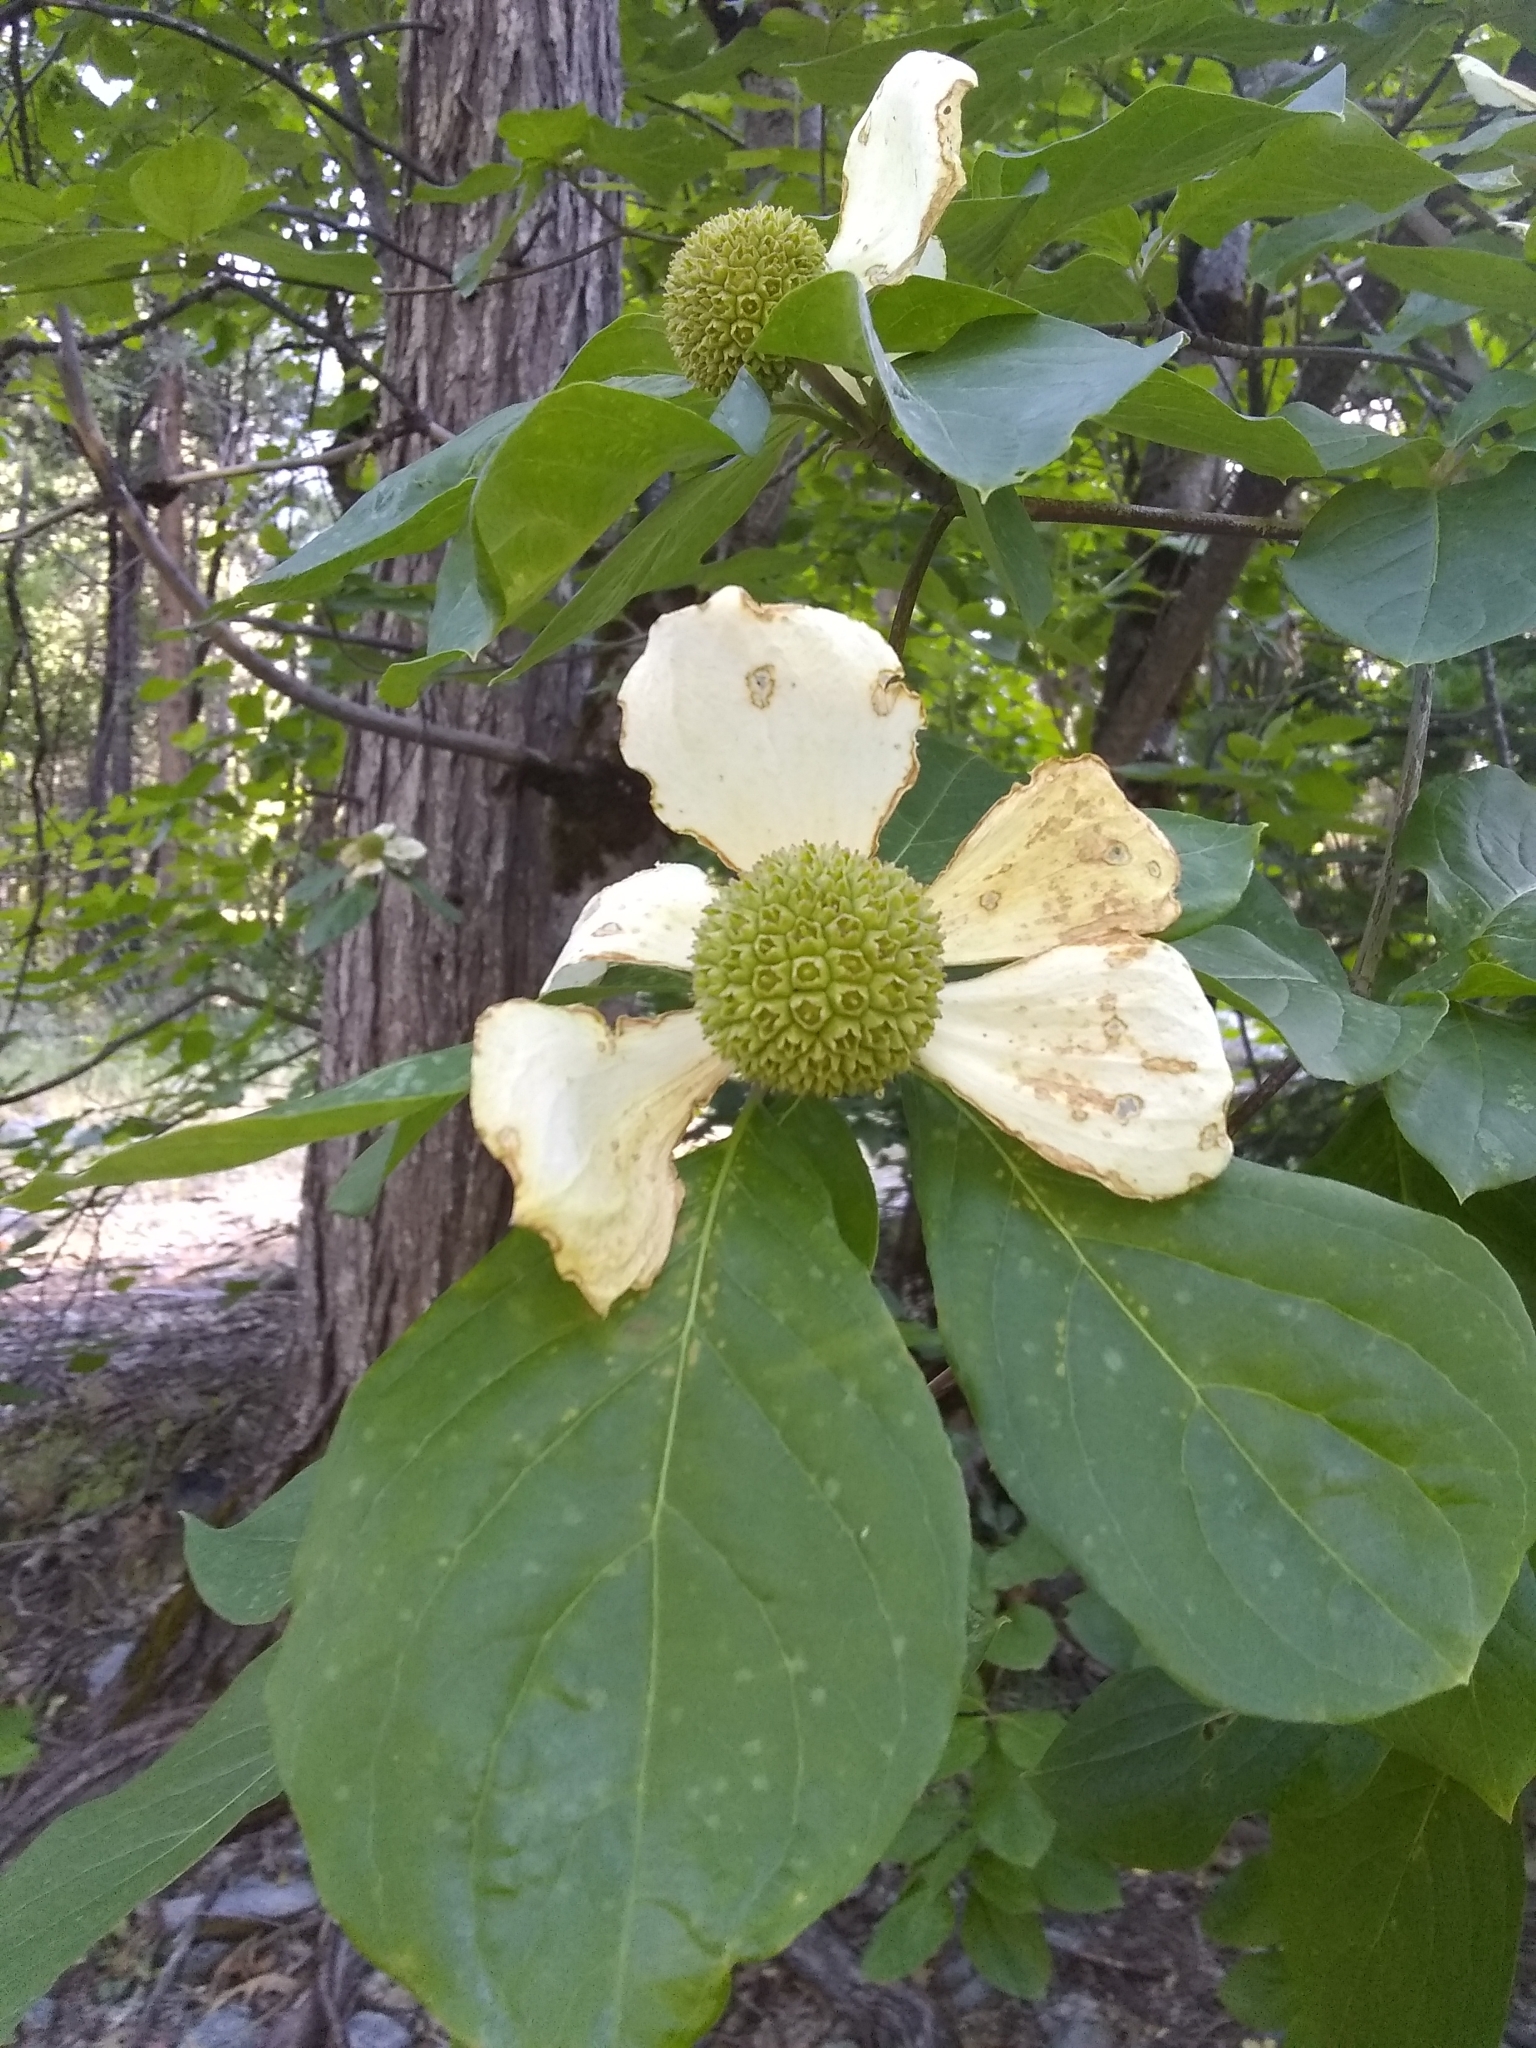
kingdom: Plantae
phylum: Tracheophyta
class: Magnoliopsida
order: Cornales
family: Cornaceae
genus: Cornus
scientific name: Cornus nuttallii
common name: Pacific dogwood
